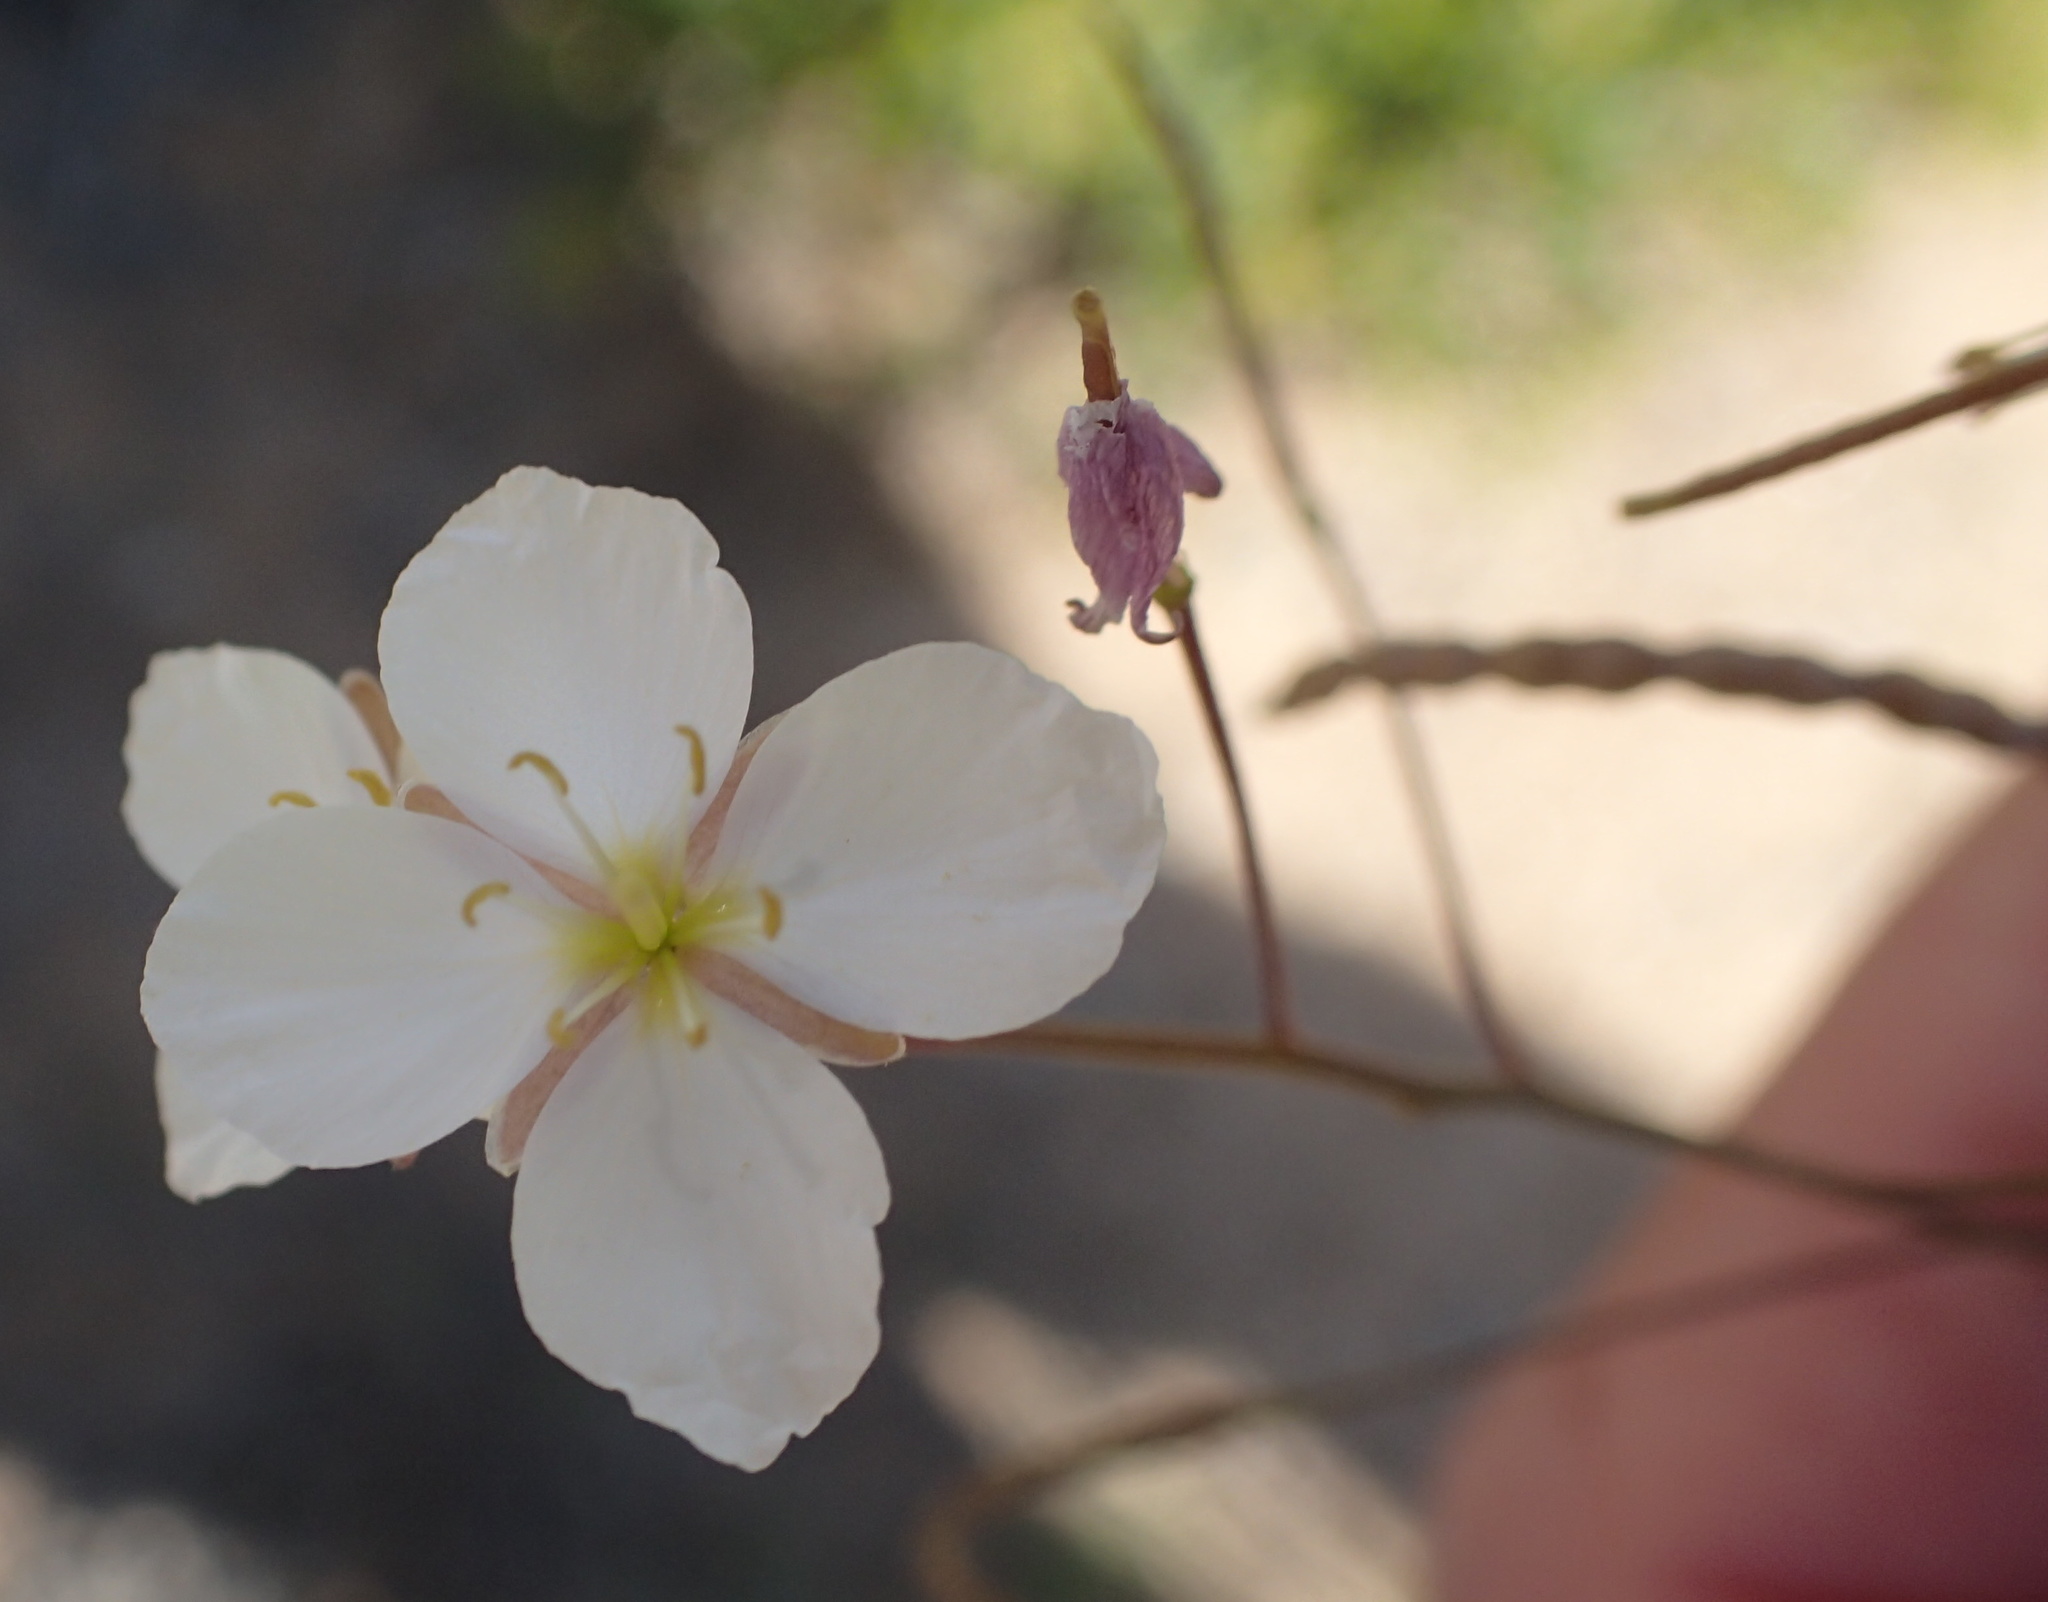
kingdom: Plantae
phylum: Tracheophyta
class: Magnoliopsida
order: Brassicales
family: Brassicaceae
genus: Heliophila
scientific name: Heliophila variabilis
